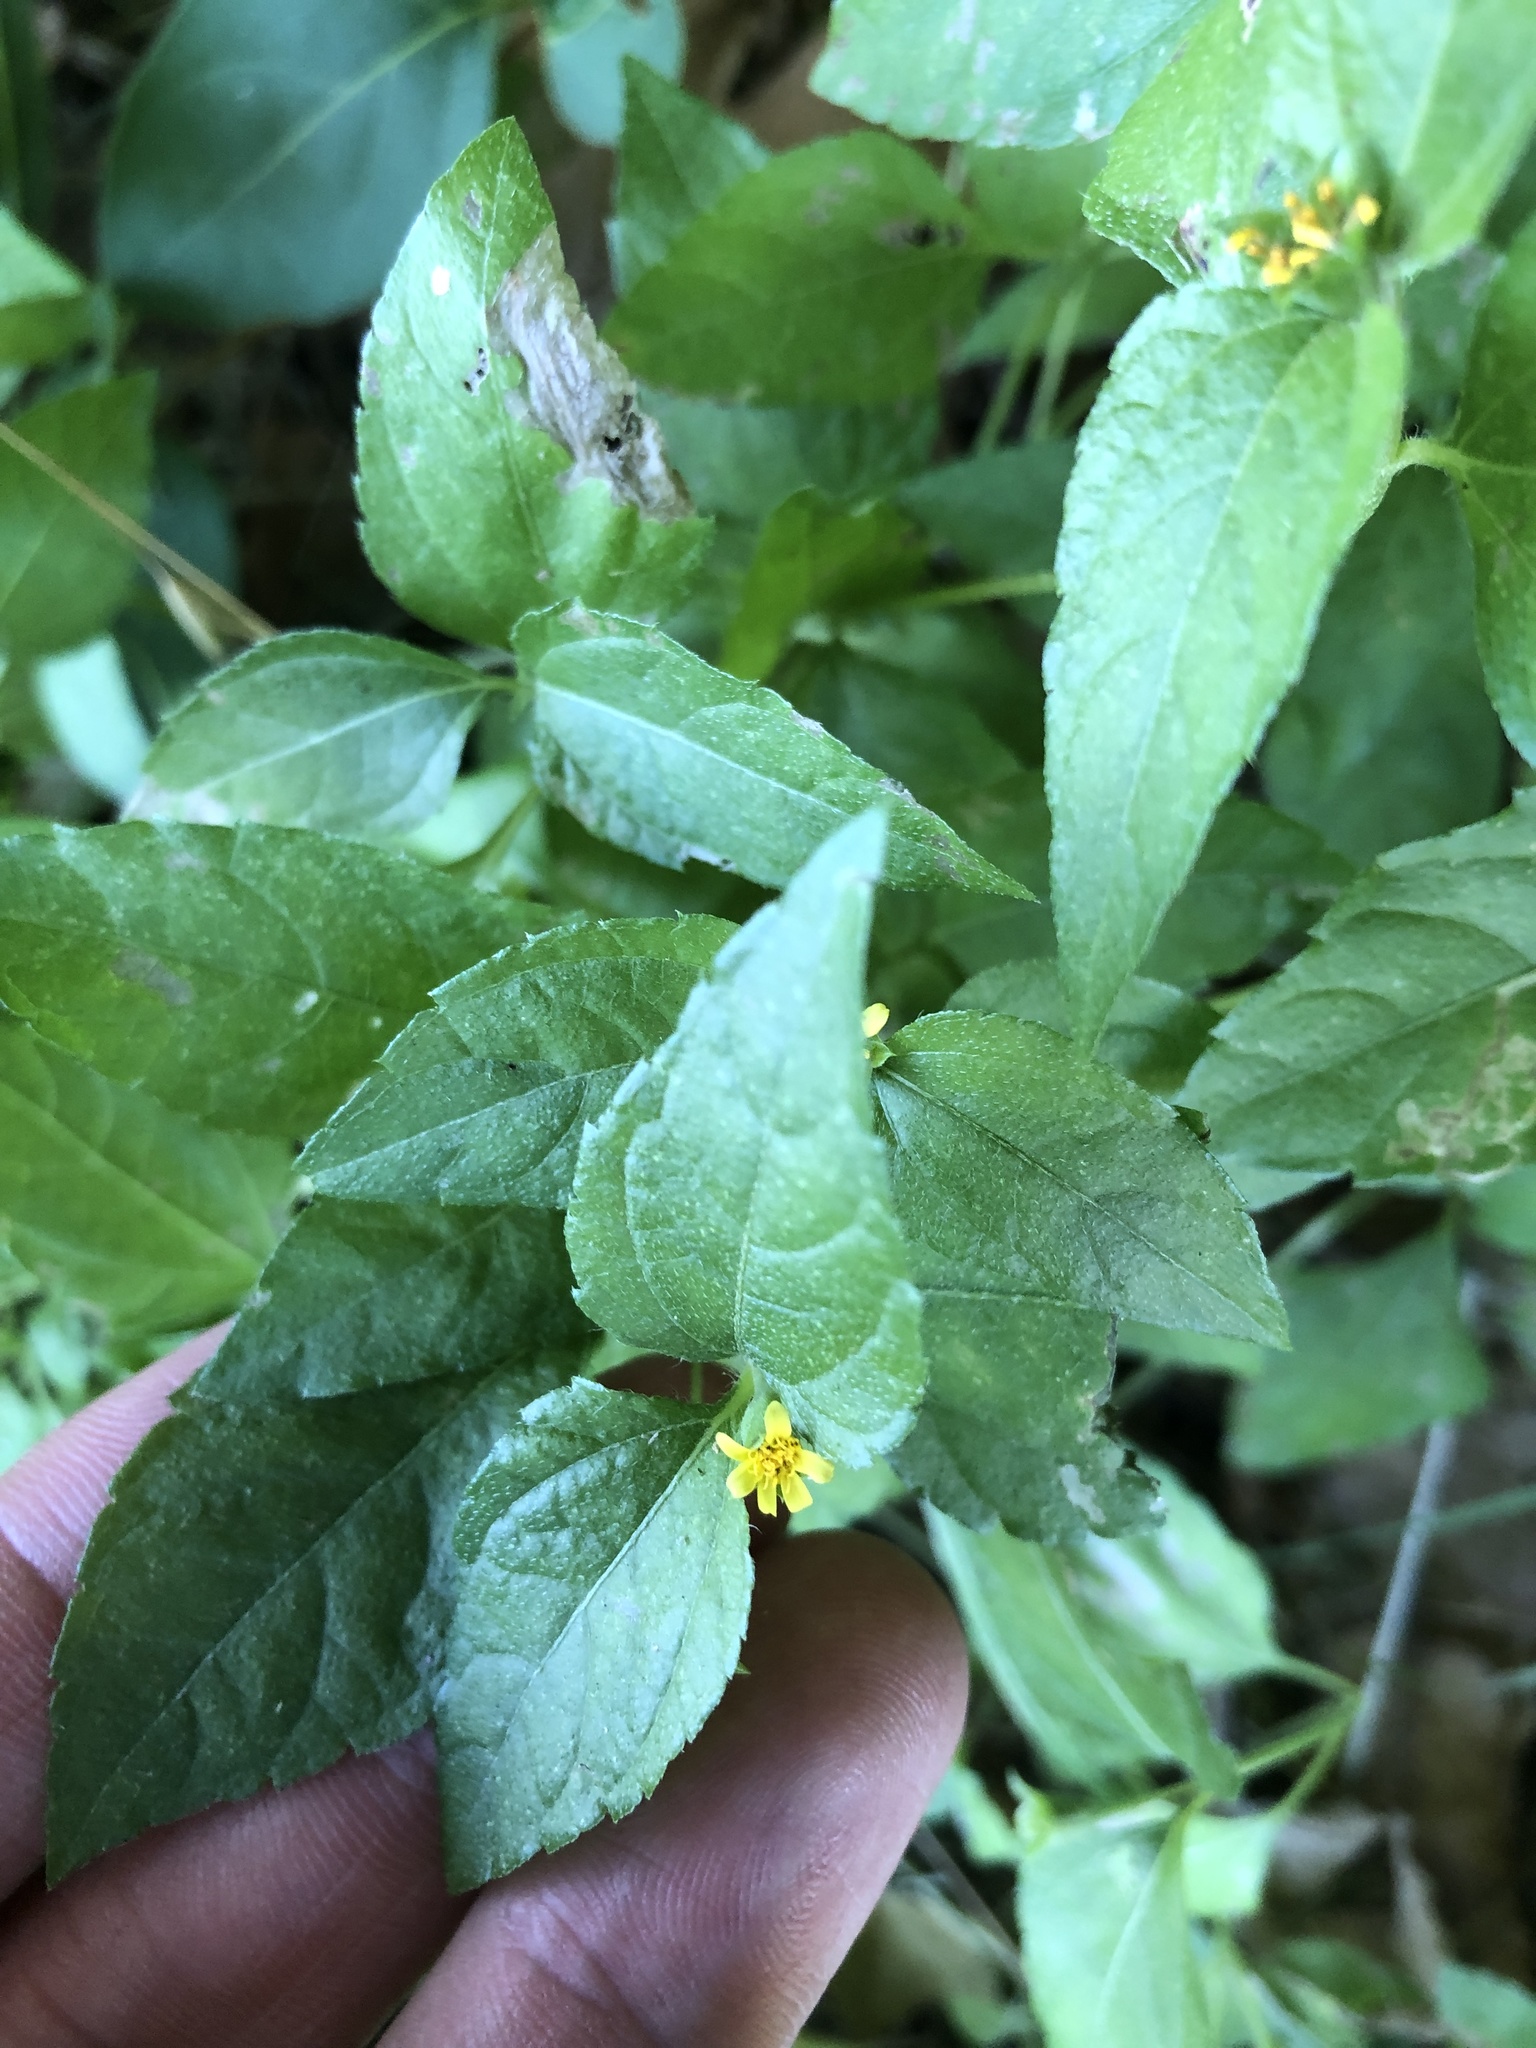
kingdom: Plantae
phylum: Tracheophyta
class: Magnoliopsida
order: Asterales
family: Asteraceae
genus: Calyptocarpus
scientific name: Calyptocarpus vialis
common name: Straggler daisy
